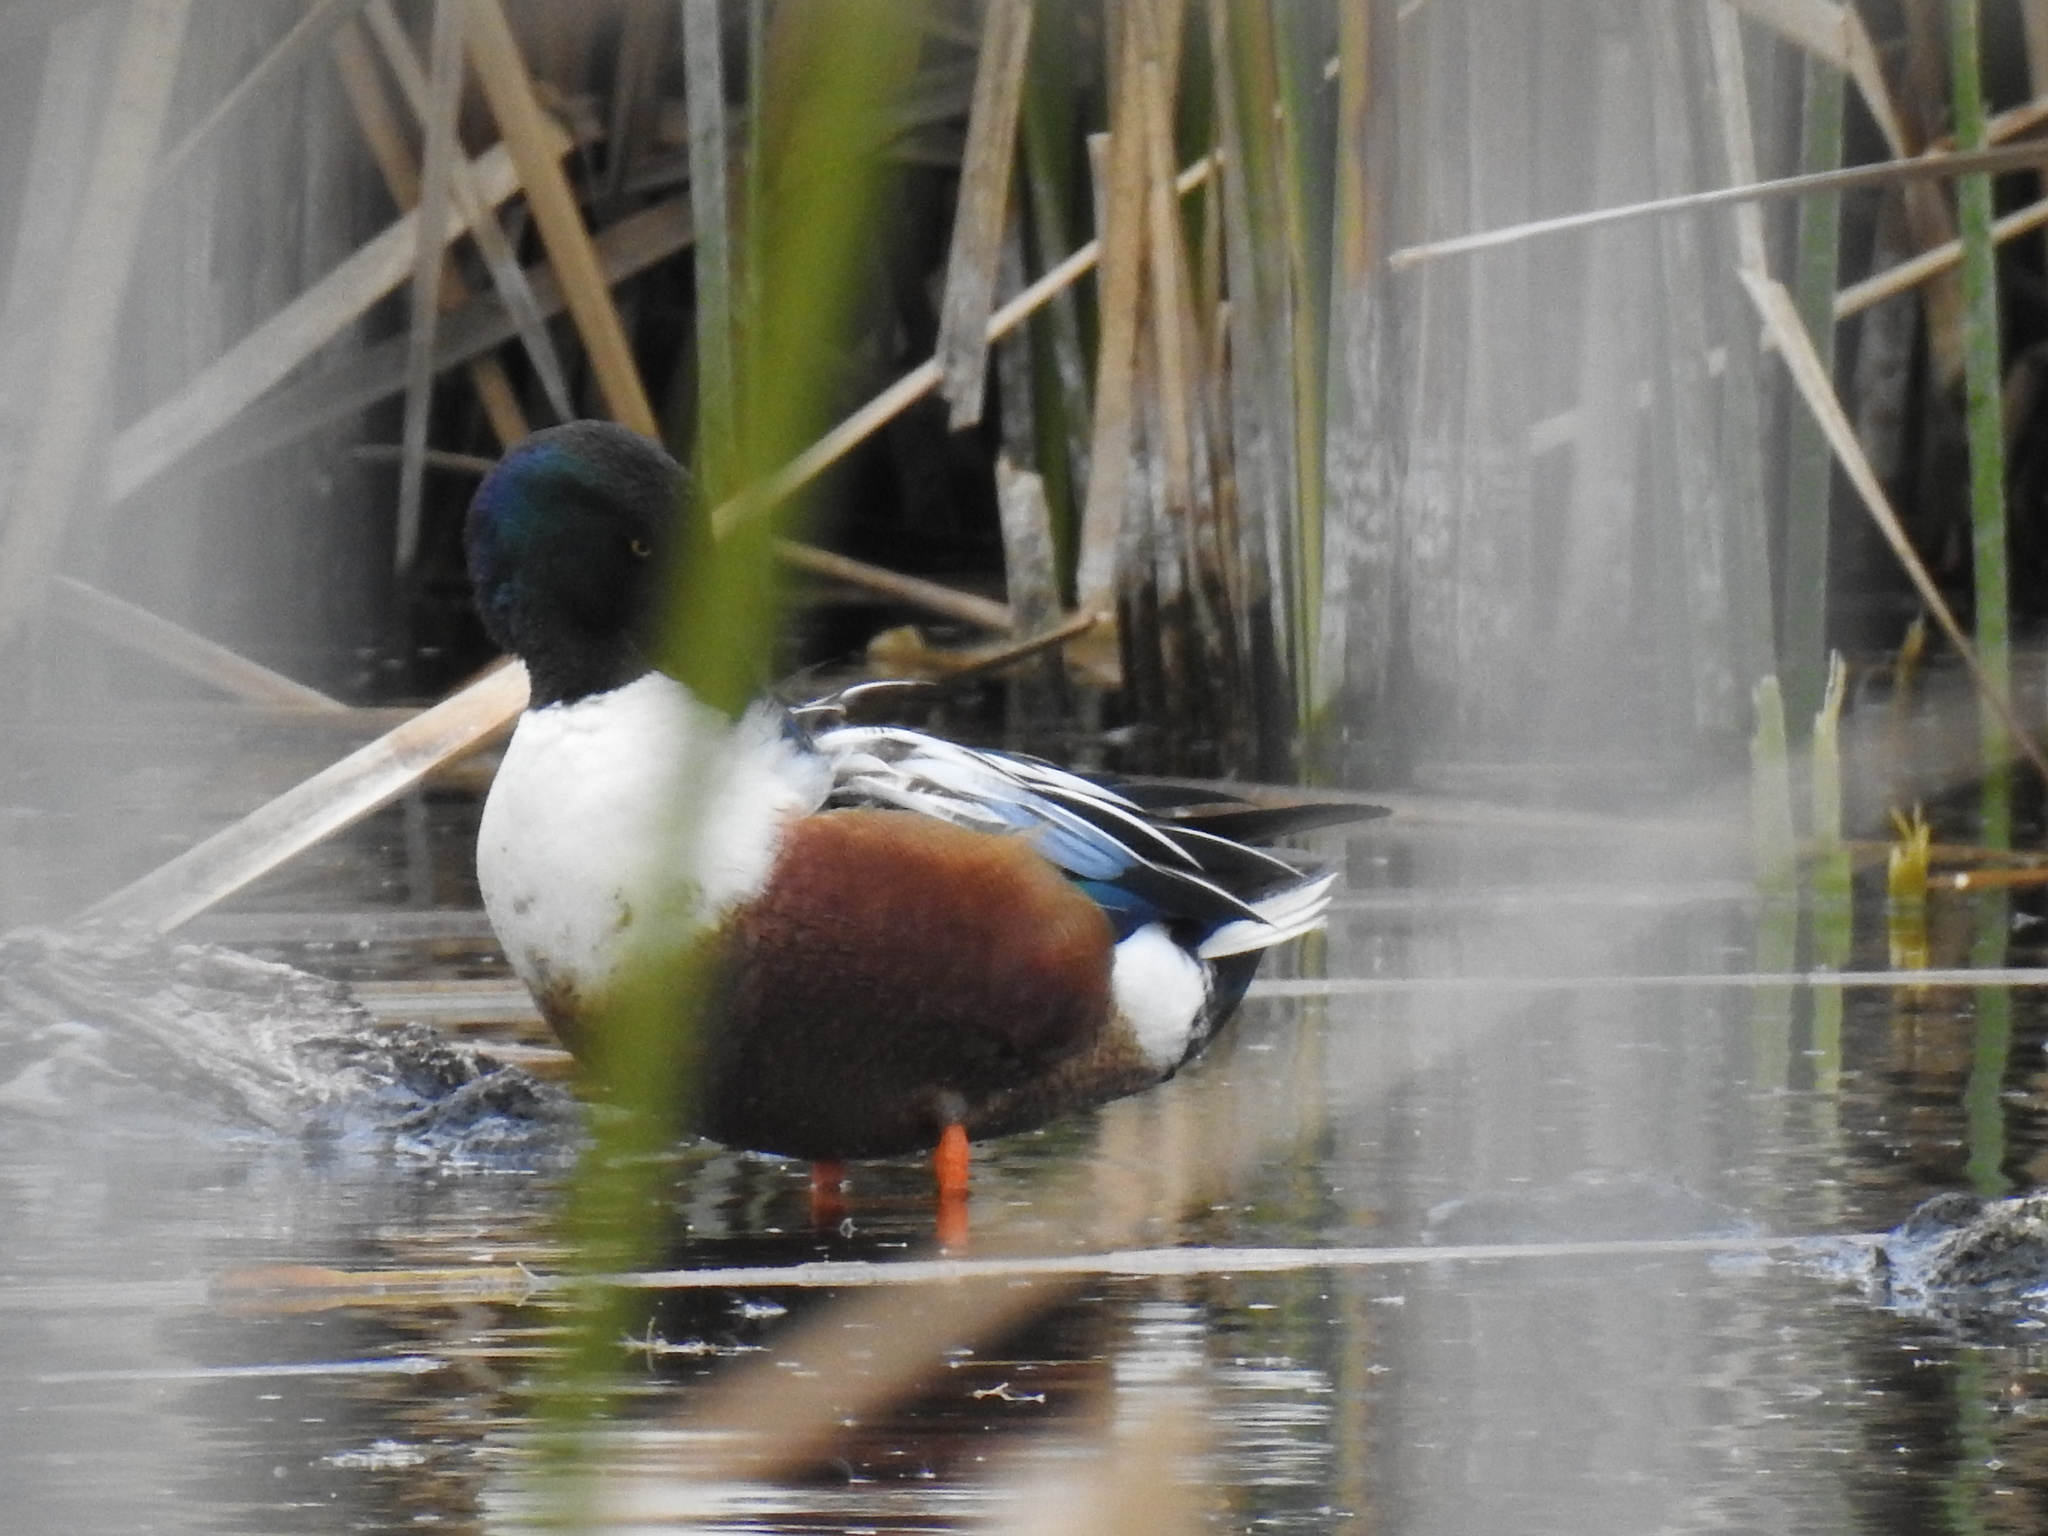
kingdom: Animalia
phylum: Chordata
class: Aves
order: Anseriformes
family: Anatidae
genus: Spatula
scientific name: Spatula clypeata
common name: Northern shoveler
